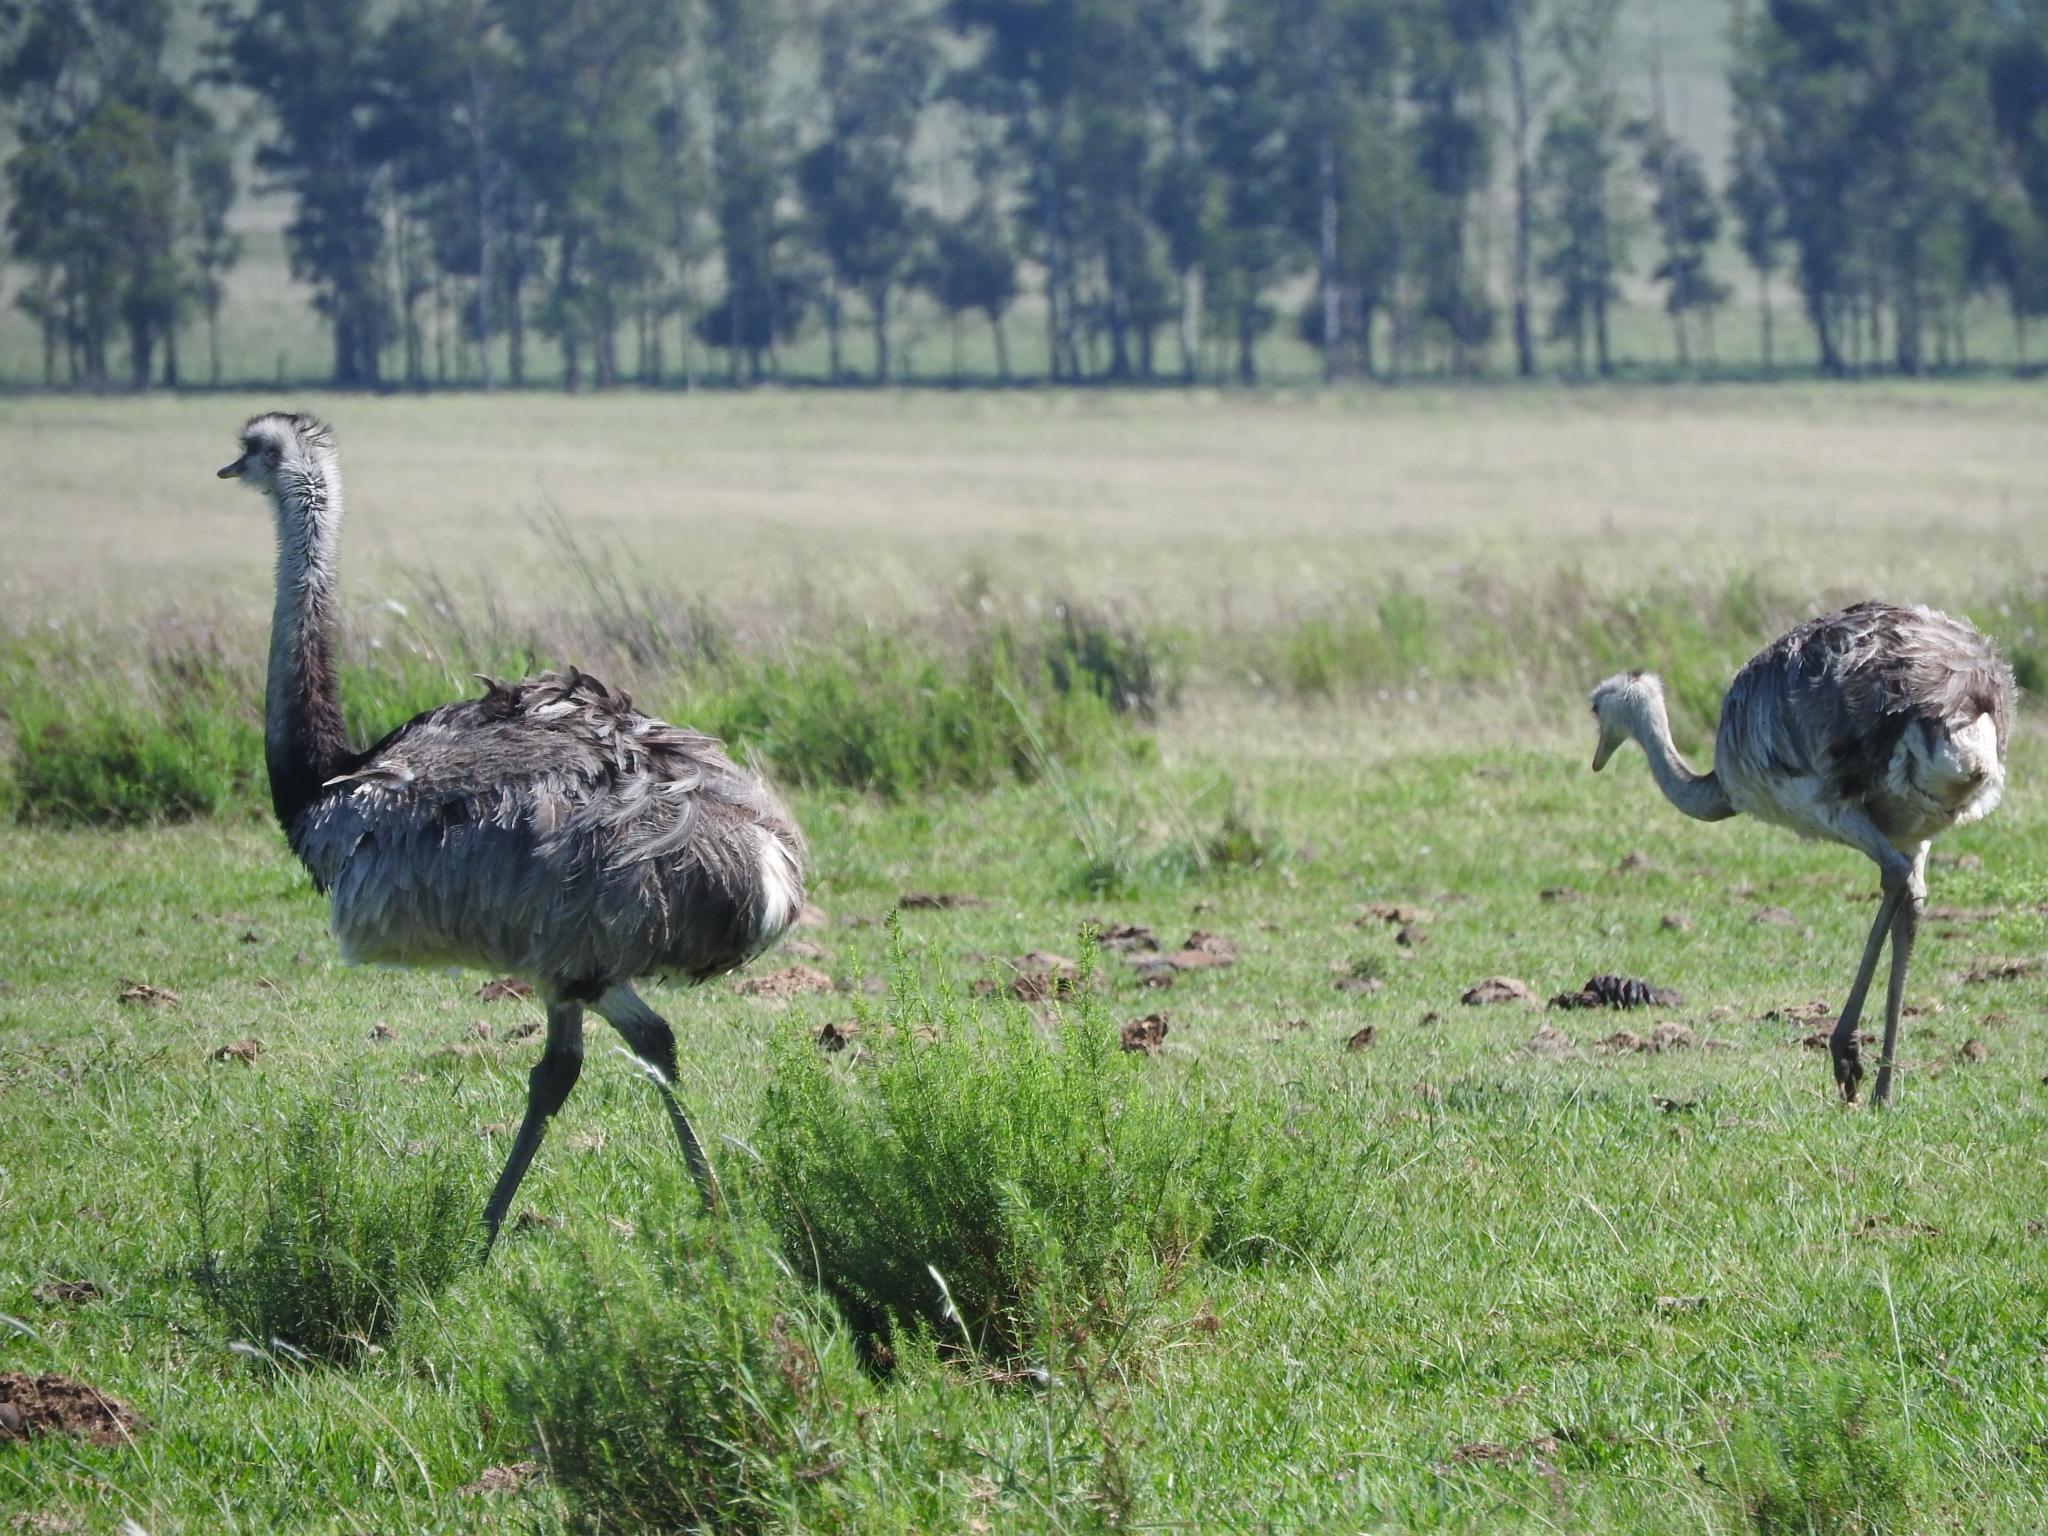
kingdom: Animalia
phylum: Chordata
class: Aves
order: Rheiformes
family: Rheidae
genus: Rhea
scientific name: Rhea americana
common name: Greater rhea
